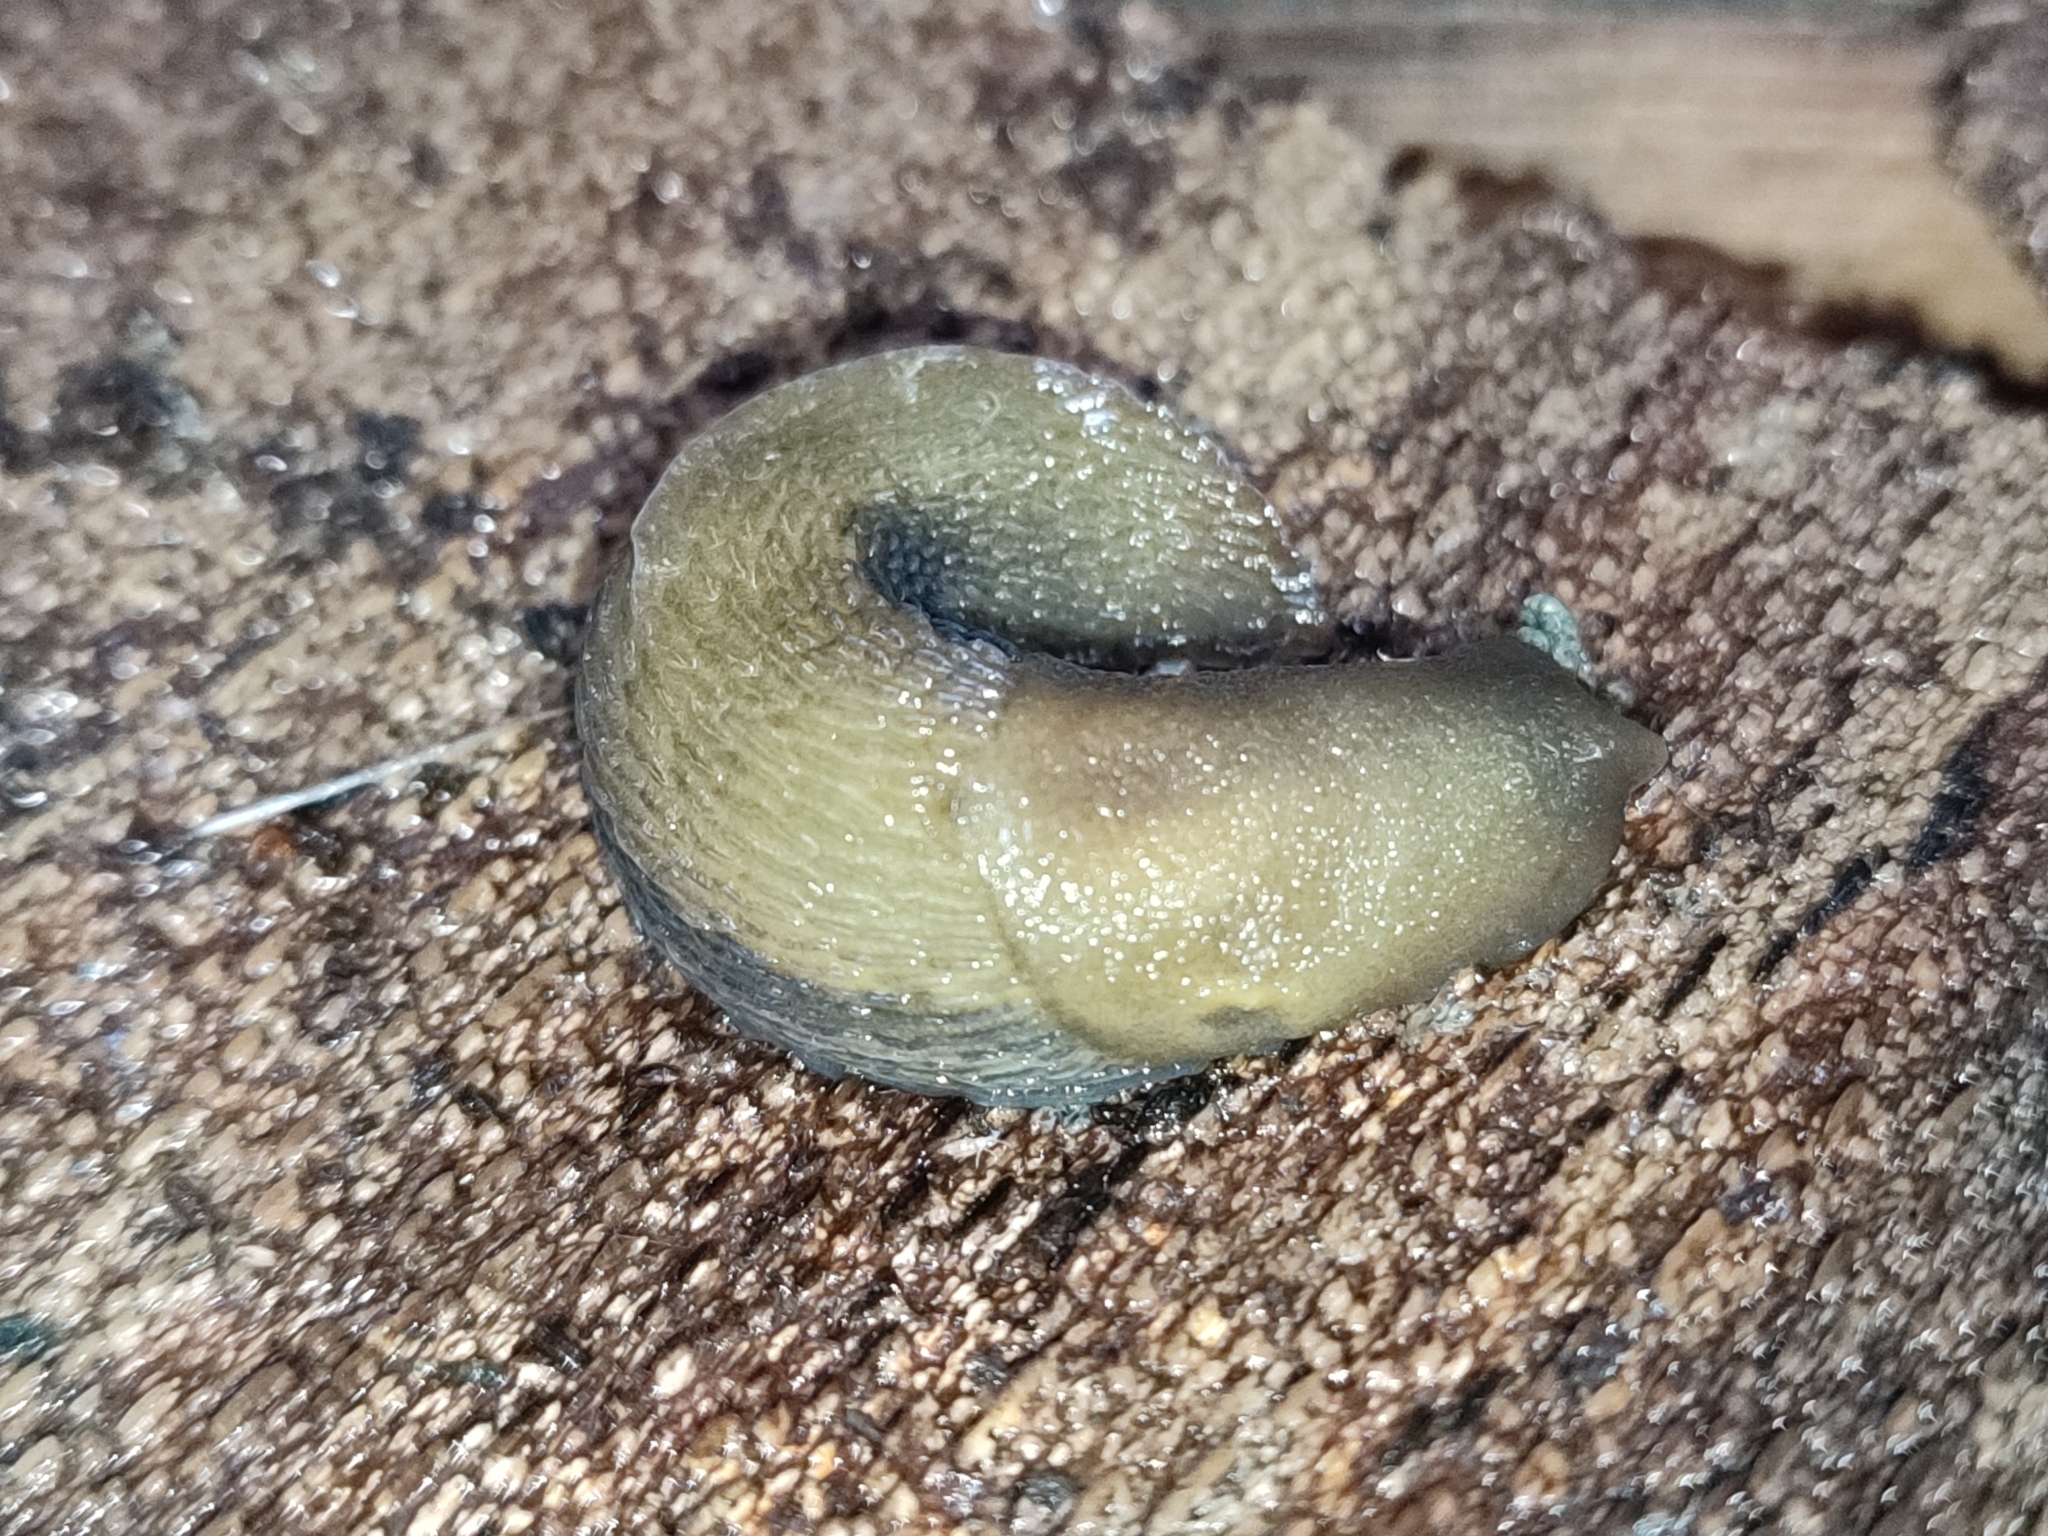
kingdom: Animalia
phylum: Mollusca
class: Gastropoda
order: Stylommatophora
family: Limacidae
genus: Bielzia
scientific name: Bielzia coerulans
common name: Carpathian blue slug
